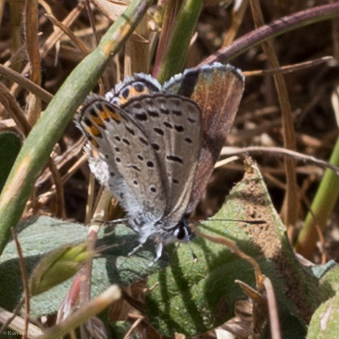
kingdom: Animalia
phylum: Arthropoda
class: Insecta
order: Lepidoptera
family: Lycaenidae
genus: Icaricia
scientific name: Icaricia acmon
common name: Acmon blue
